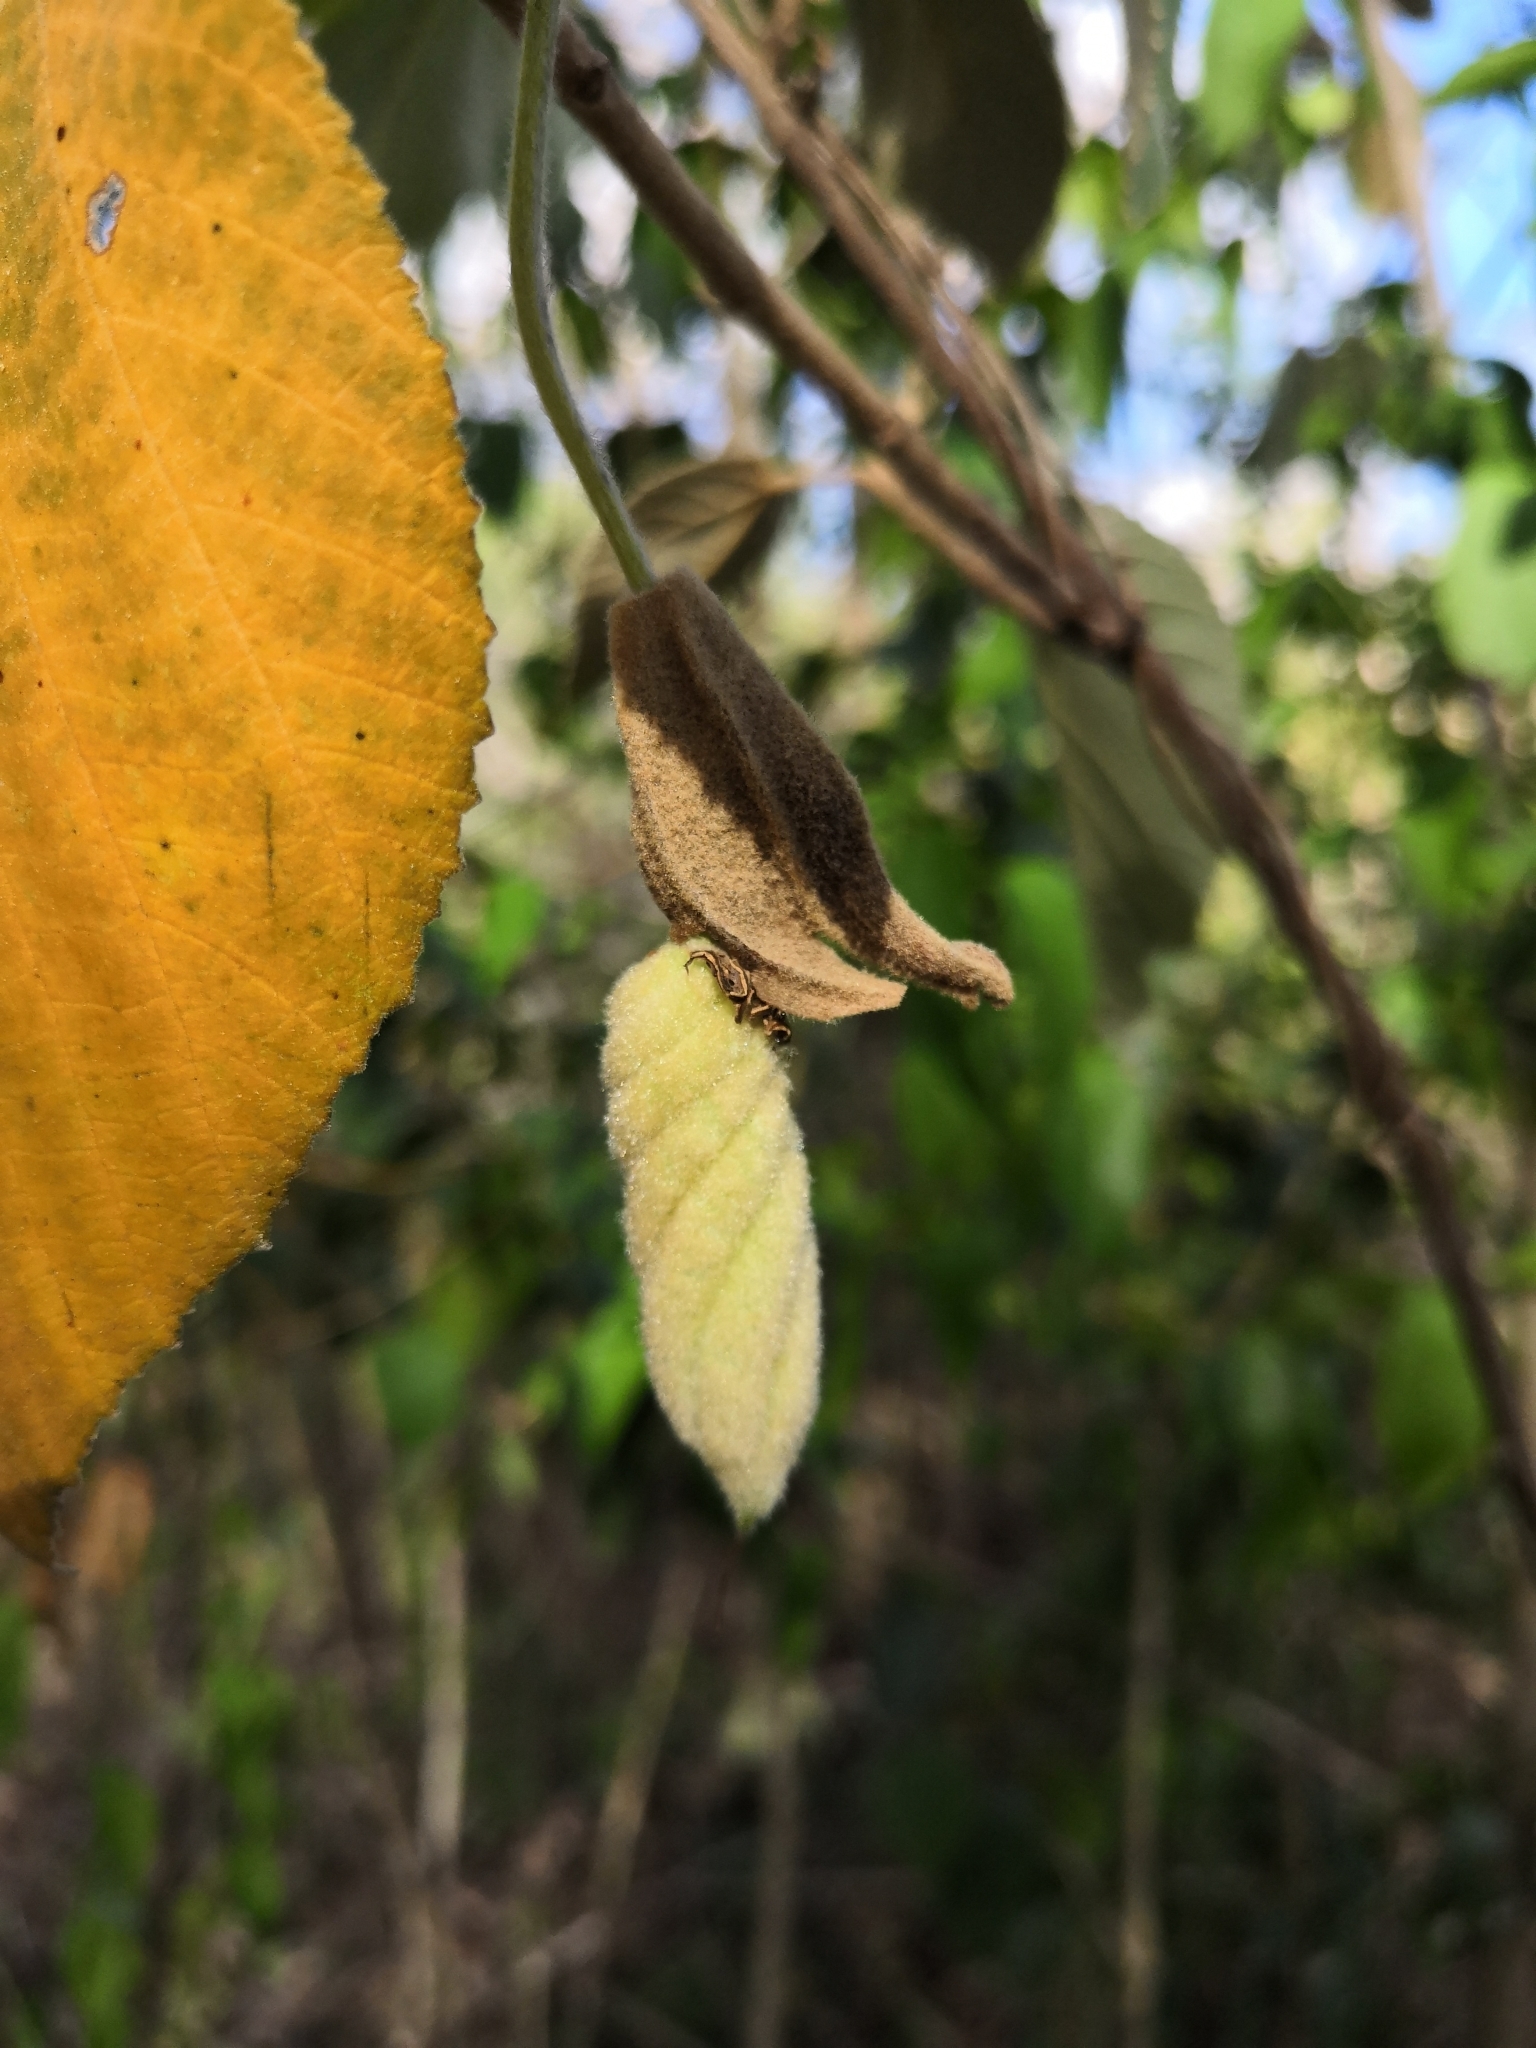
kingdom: Plantae
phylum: Tracheophyta
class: Magnoliopsida
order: Malvales
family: Malvaceae
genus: Helicteres
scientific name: Helicteres baruensis
